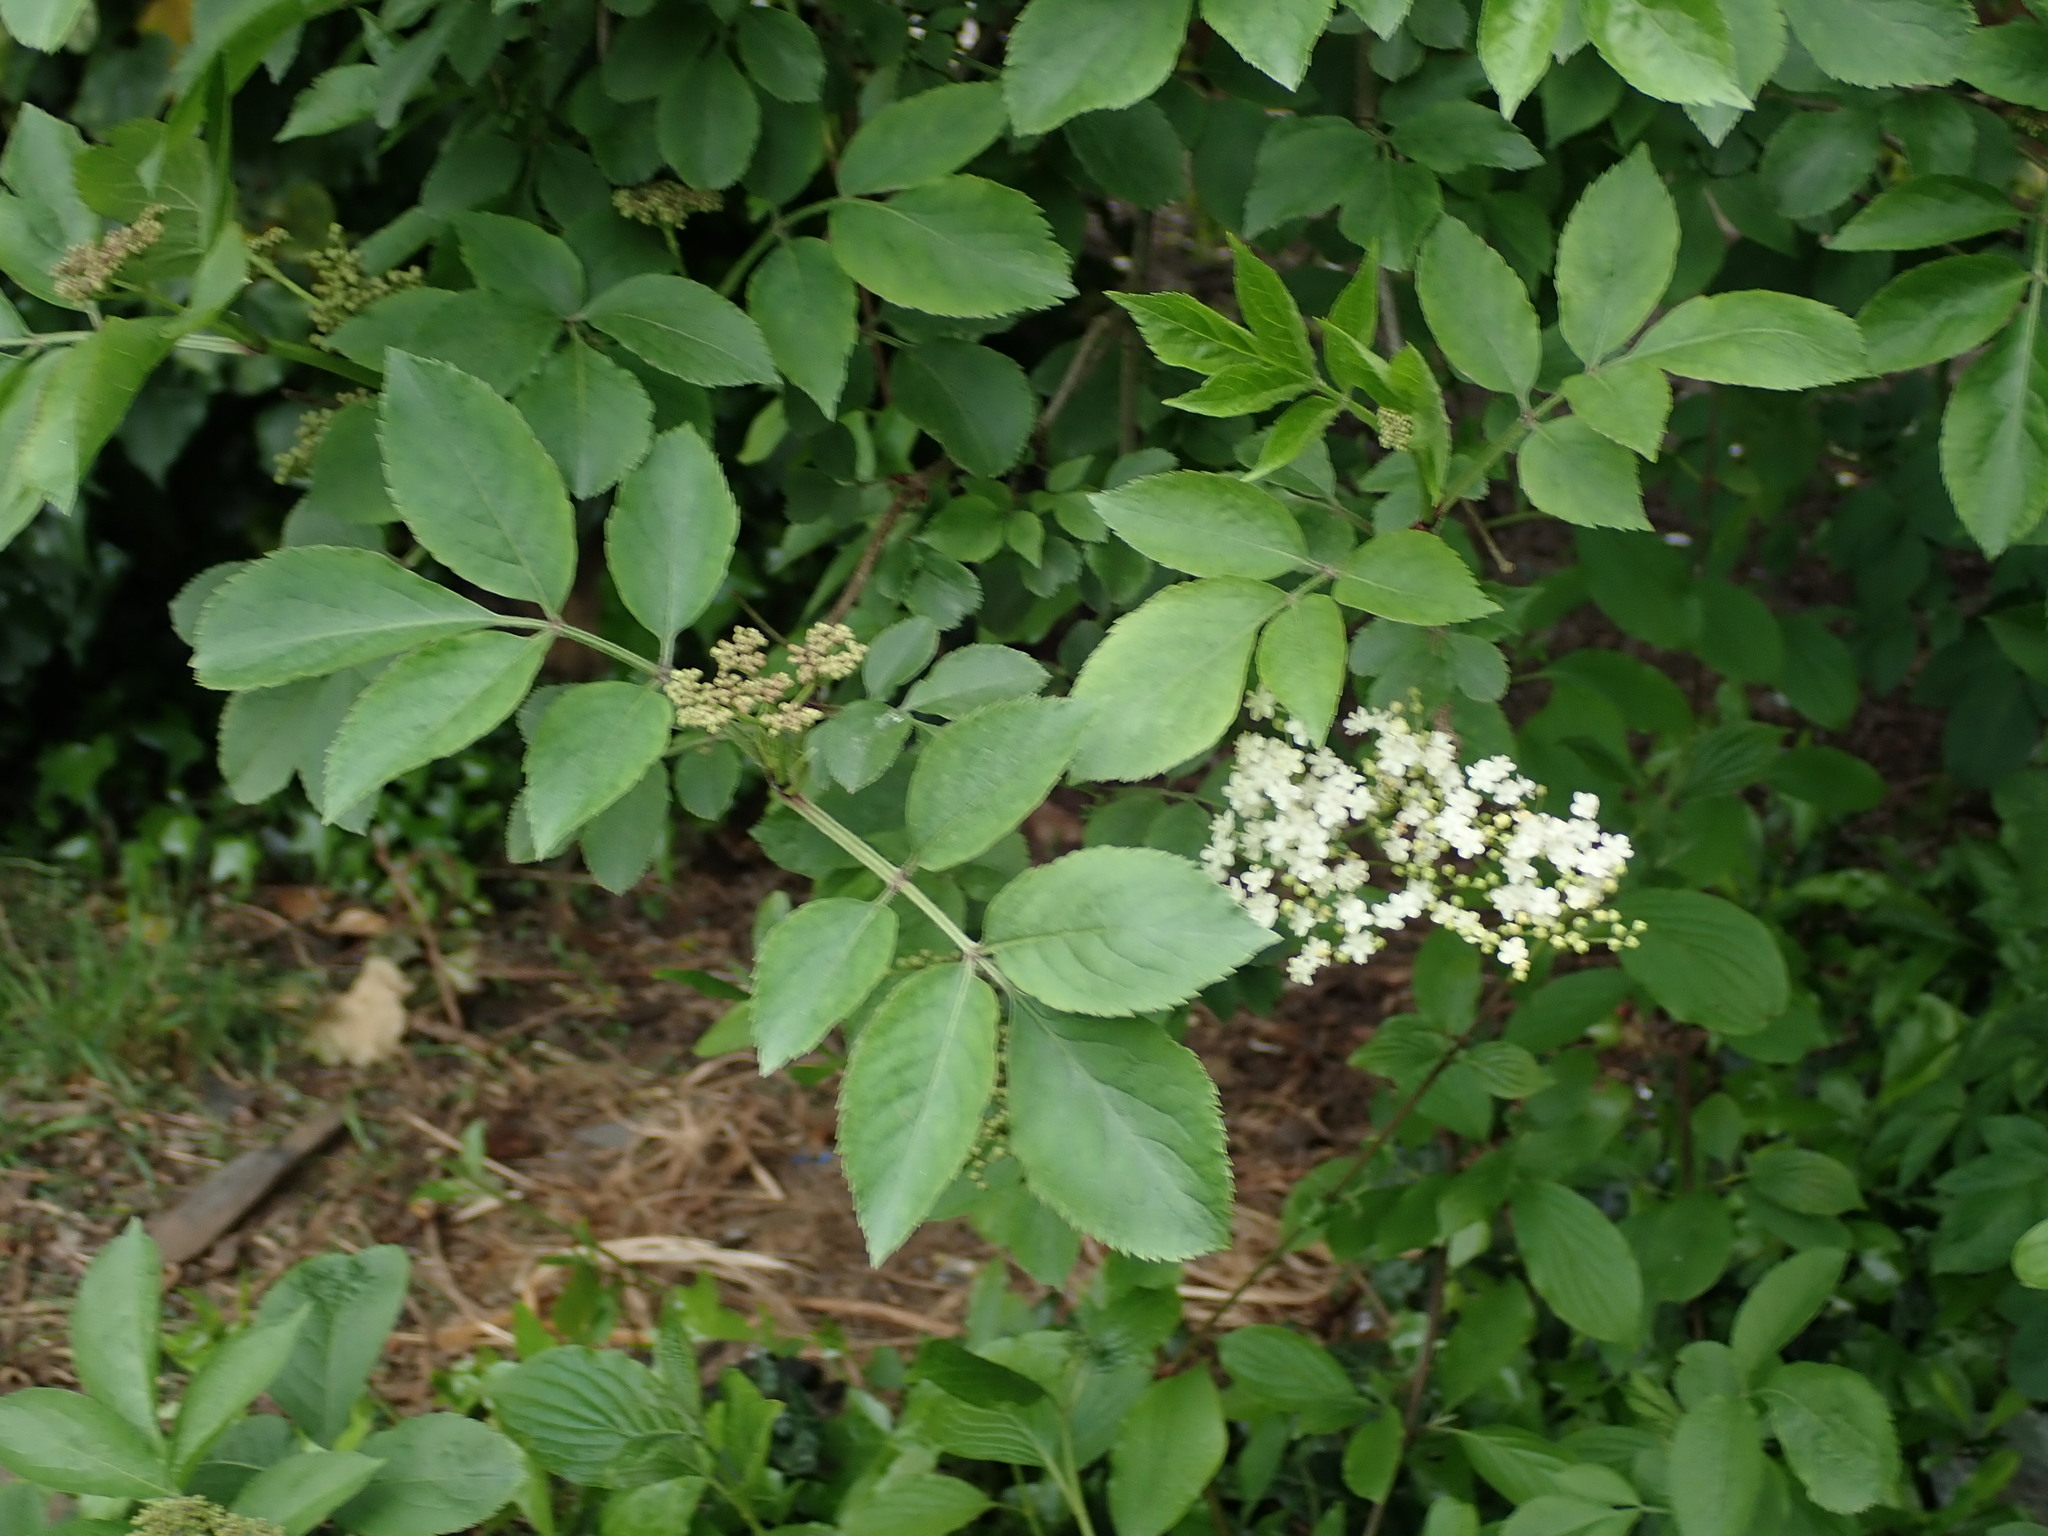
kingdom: Plantae
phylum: Tracheophyta
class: Magnoliopsida
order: Dipsacales
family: Viburnaceae
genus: Sambucus
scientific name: Sambucus nigra
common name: Elder
